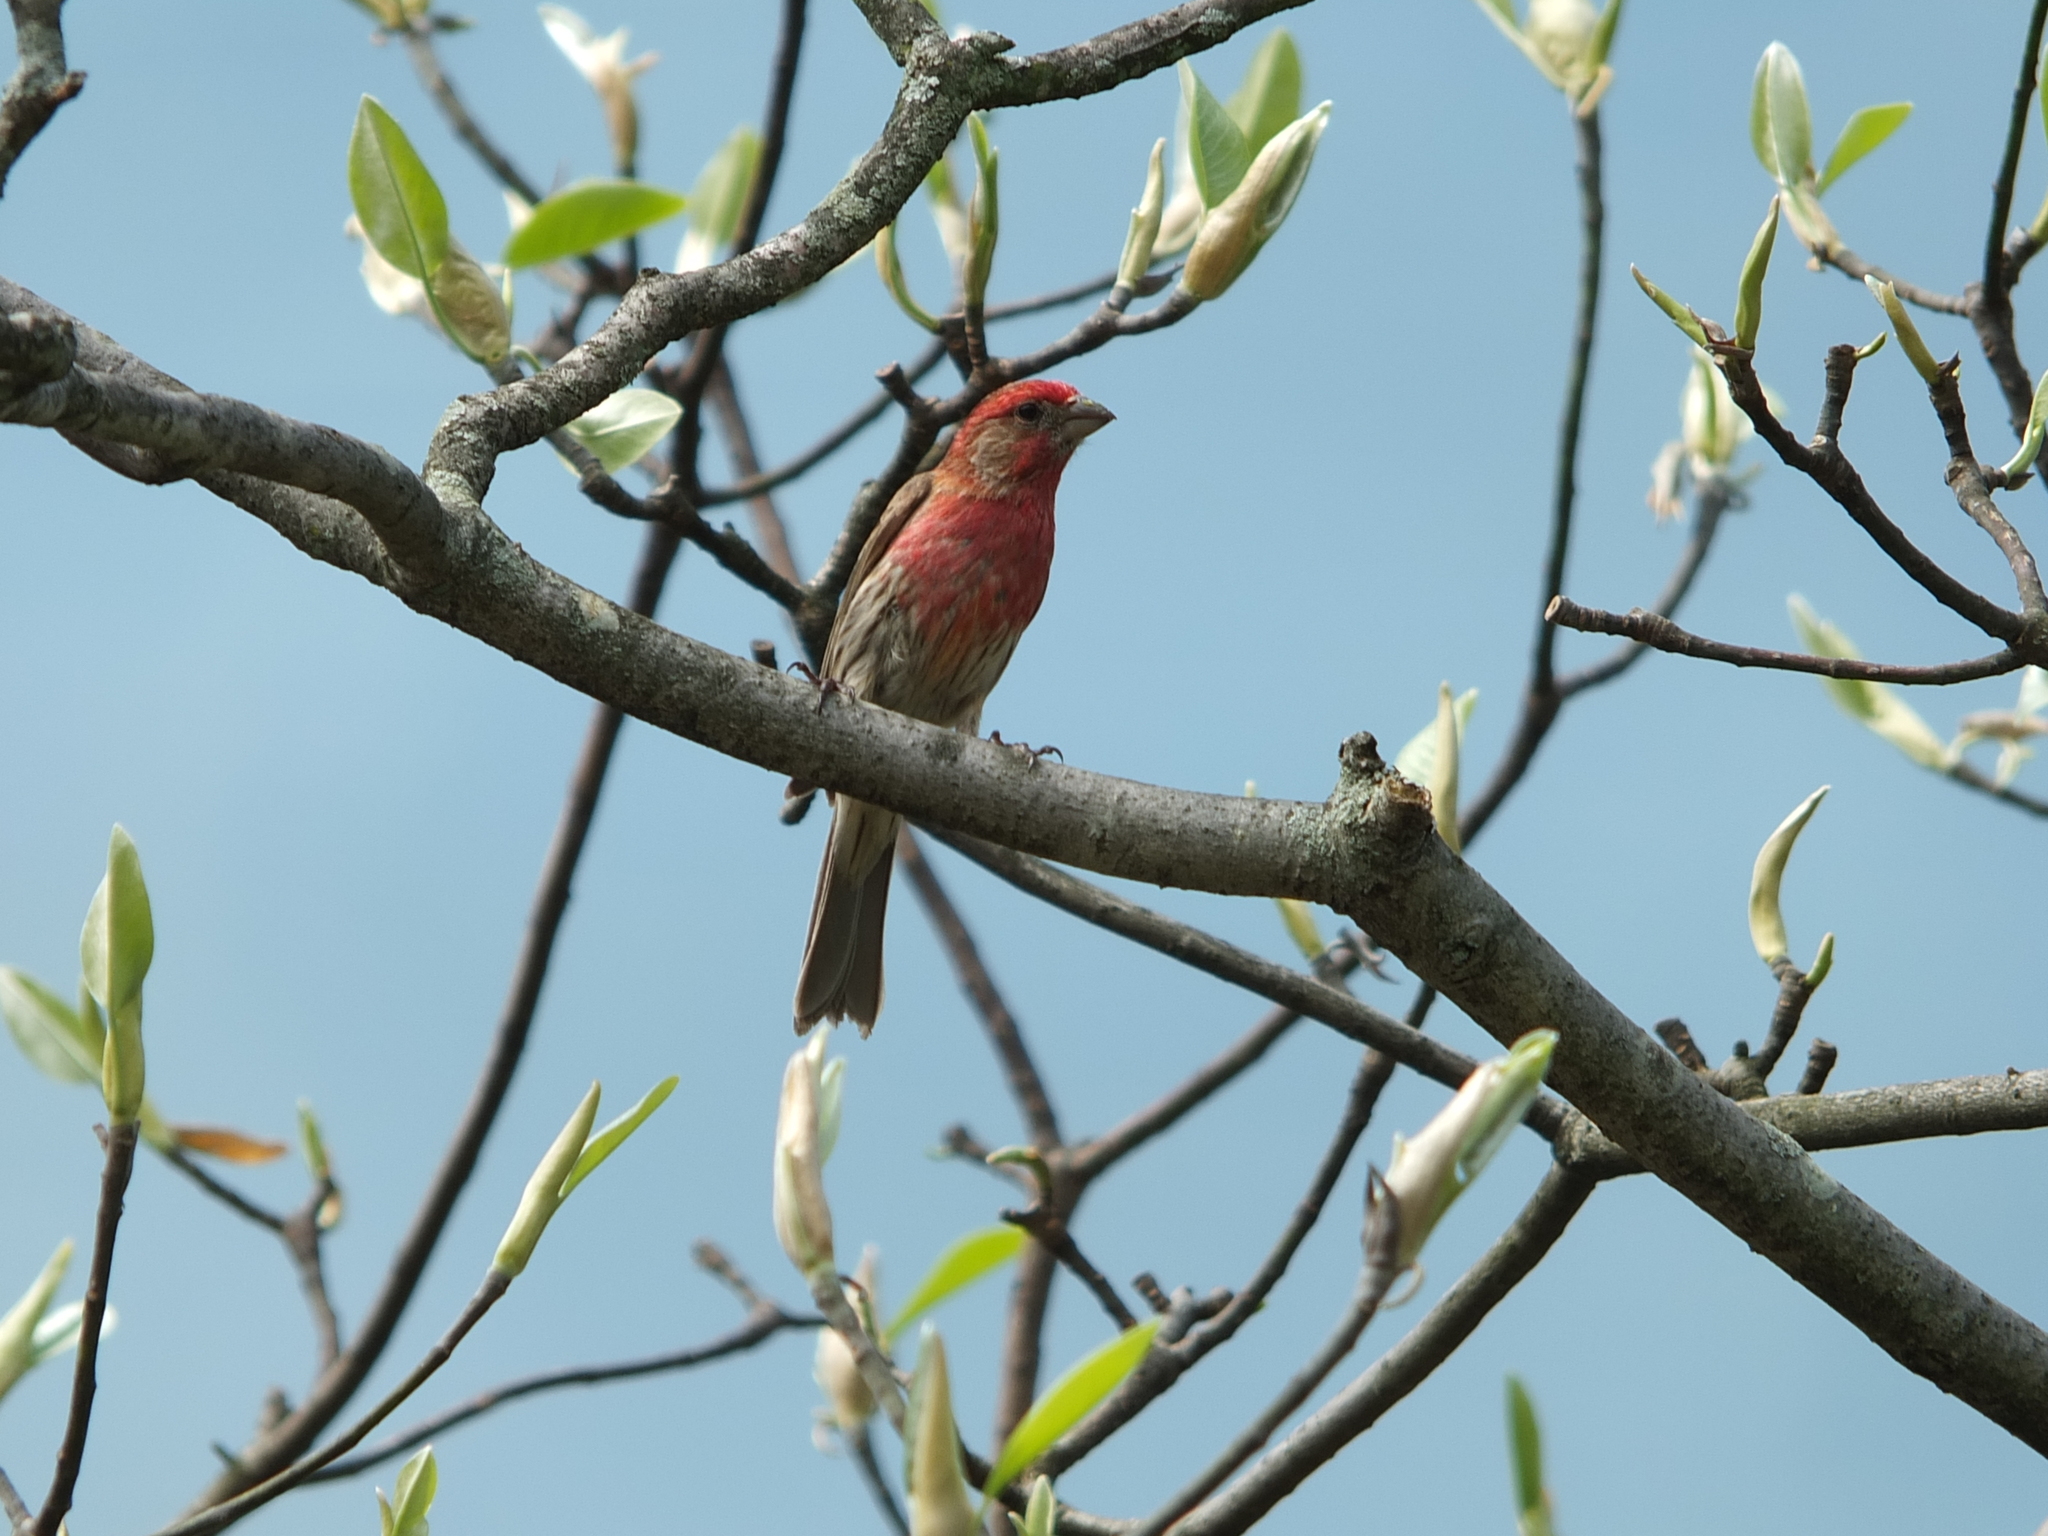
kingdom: Animalia
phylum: Chordata
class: Aves
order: Passeriformes
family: Fringillidae
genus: Haemorhous
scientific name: Haemorhous mexicanus
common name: House finch
